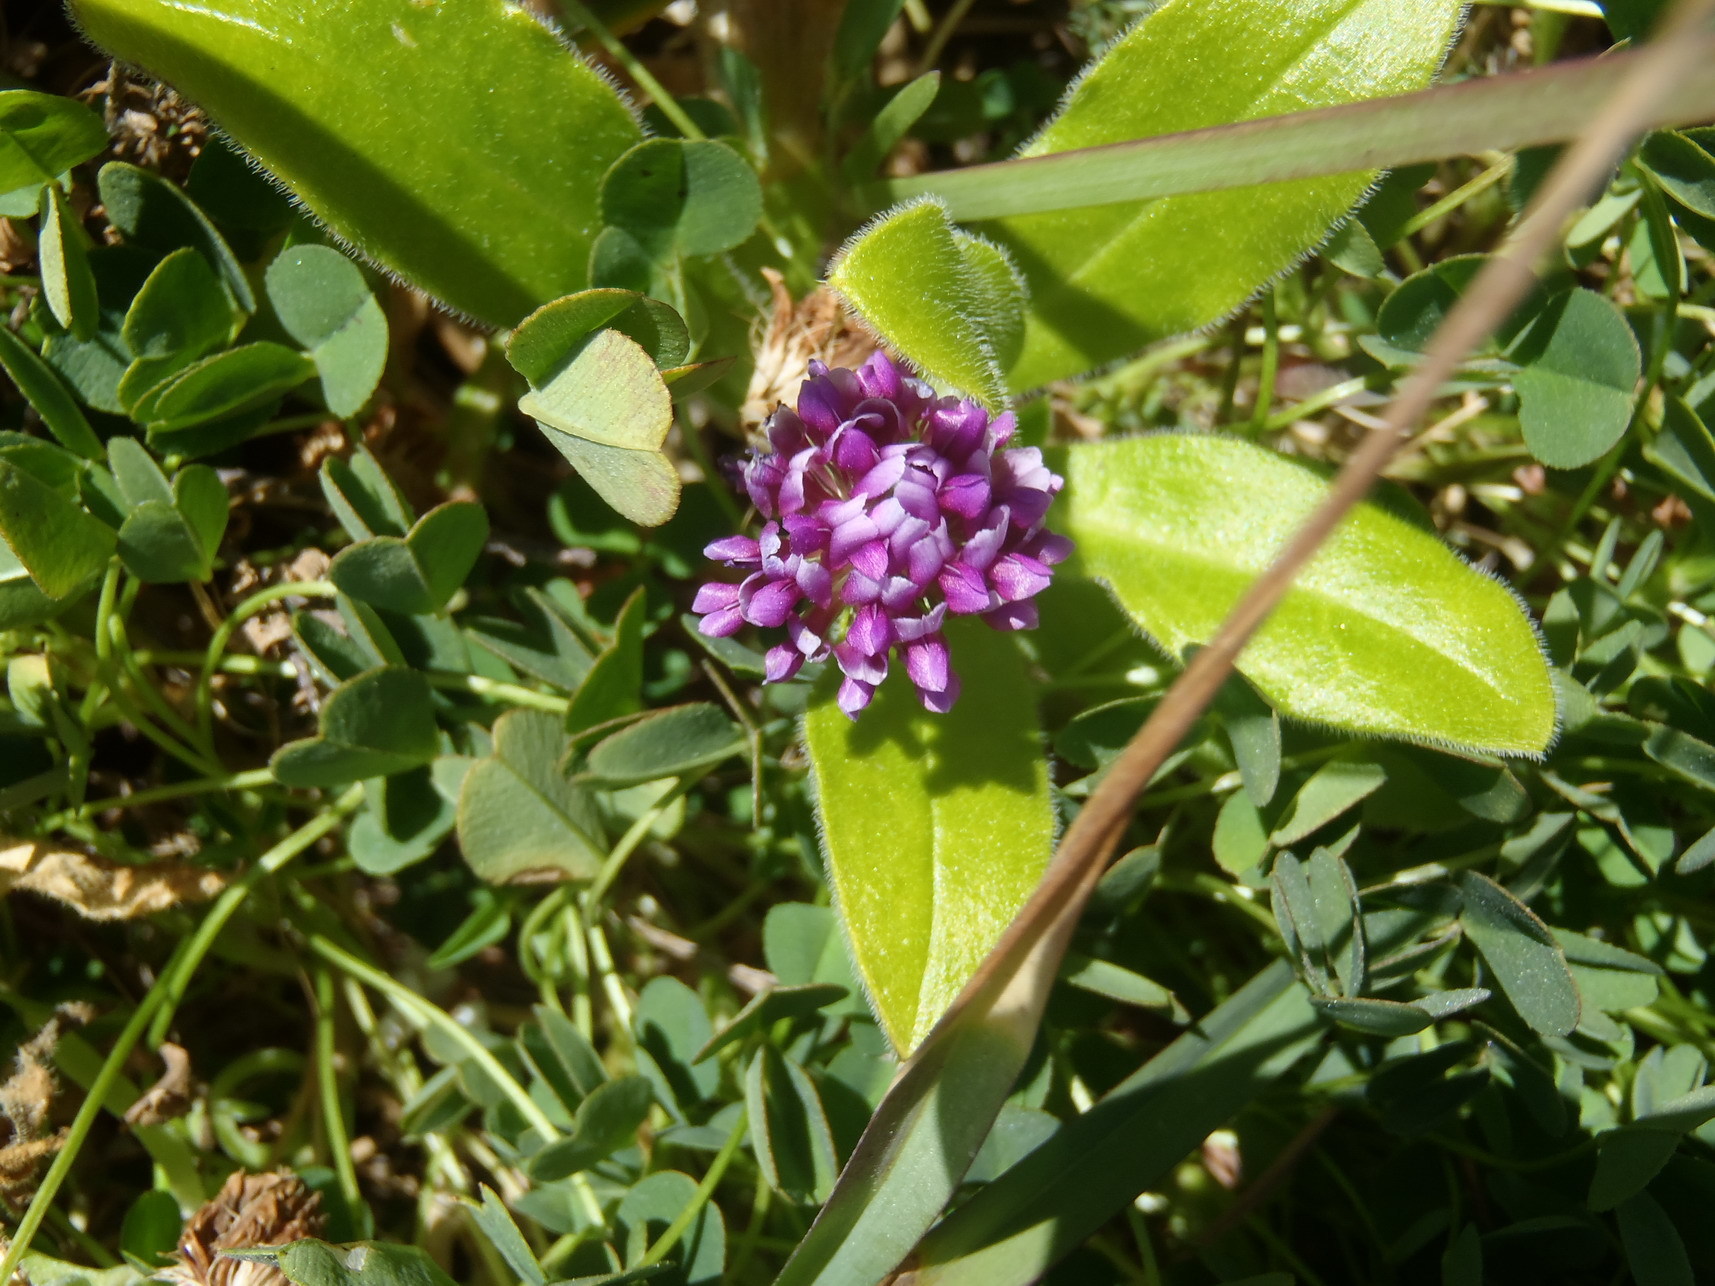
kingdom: Plantae
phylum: Tracheophyta
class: Magnoliopsida
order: Fabales
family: Fabaceae
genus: Trifolium
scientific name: Trifolium burchellianum
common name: Burchell's clover
